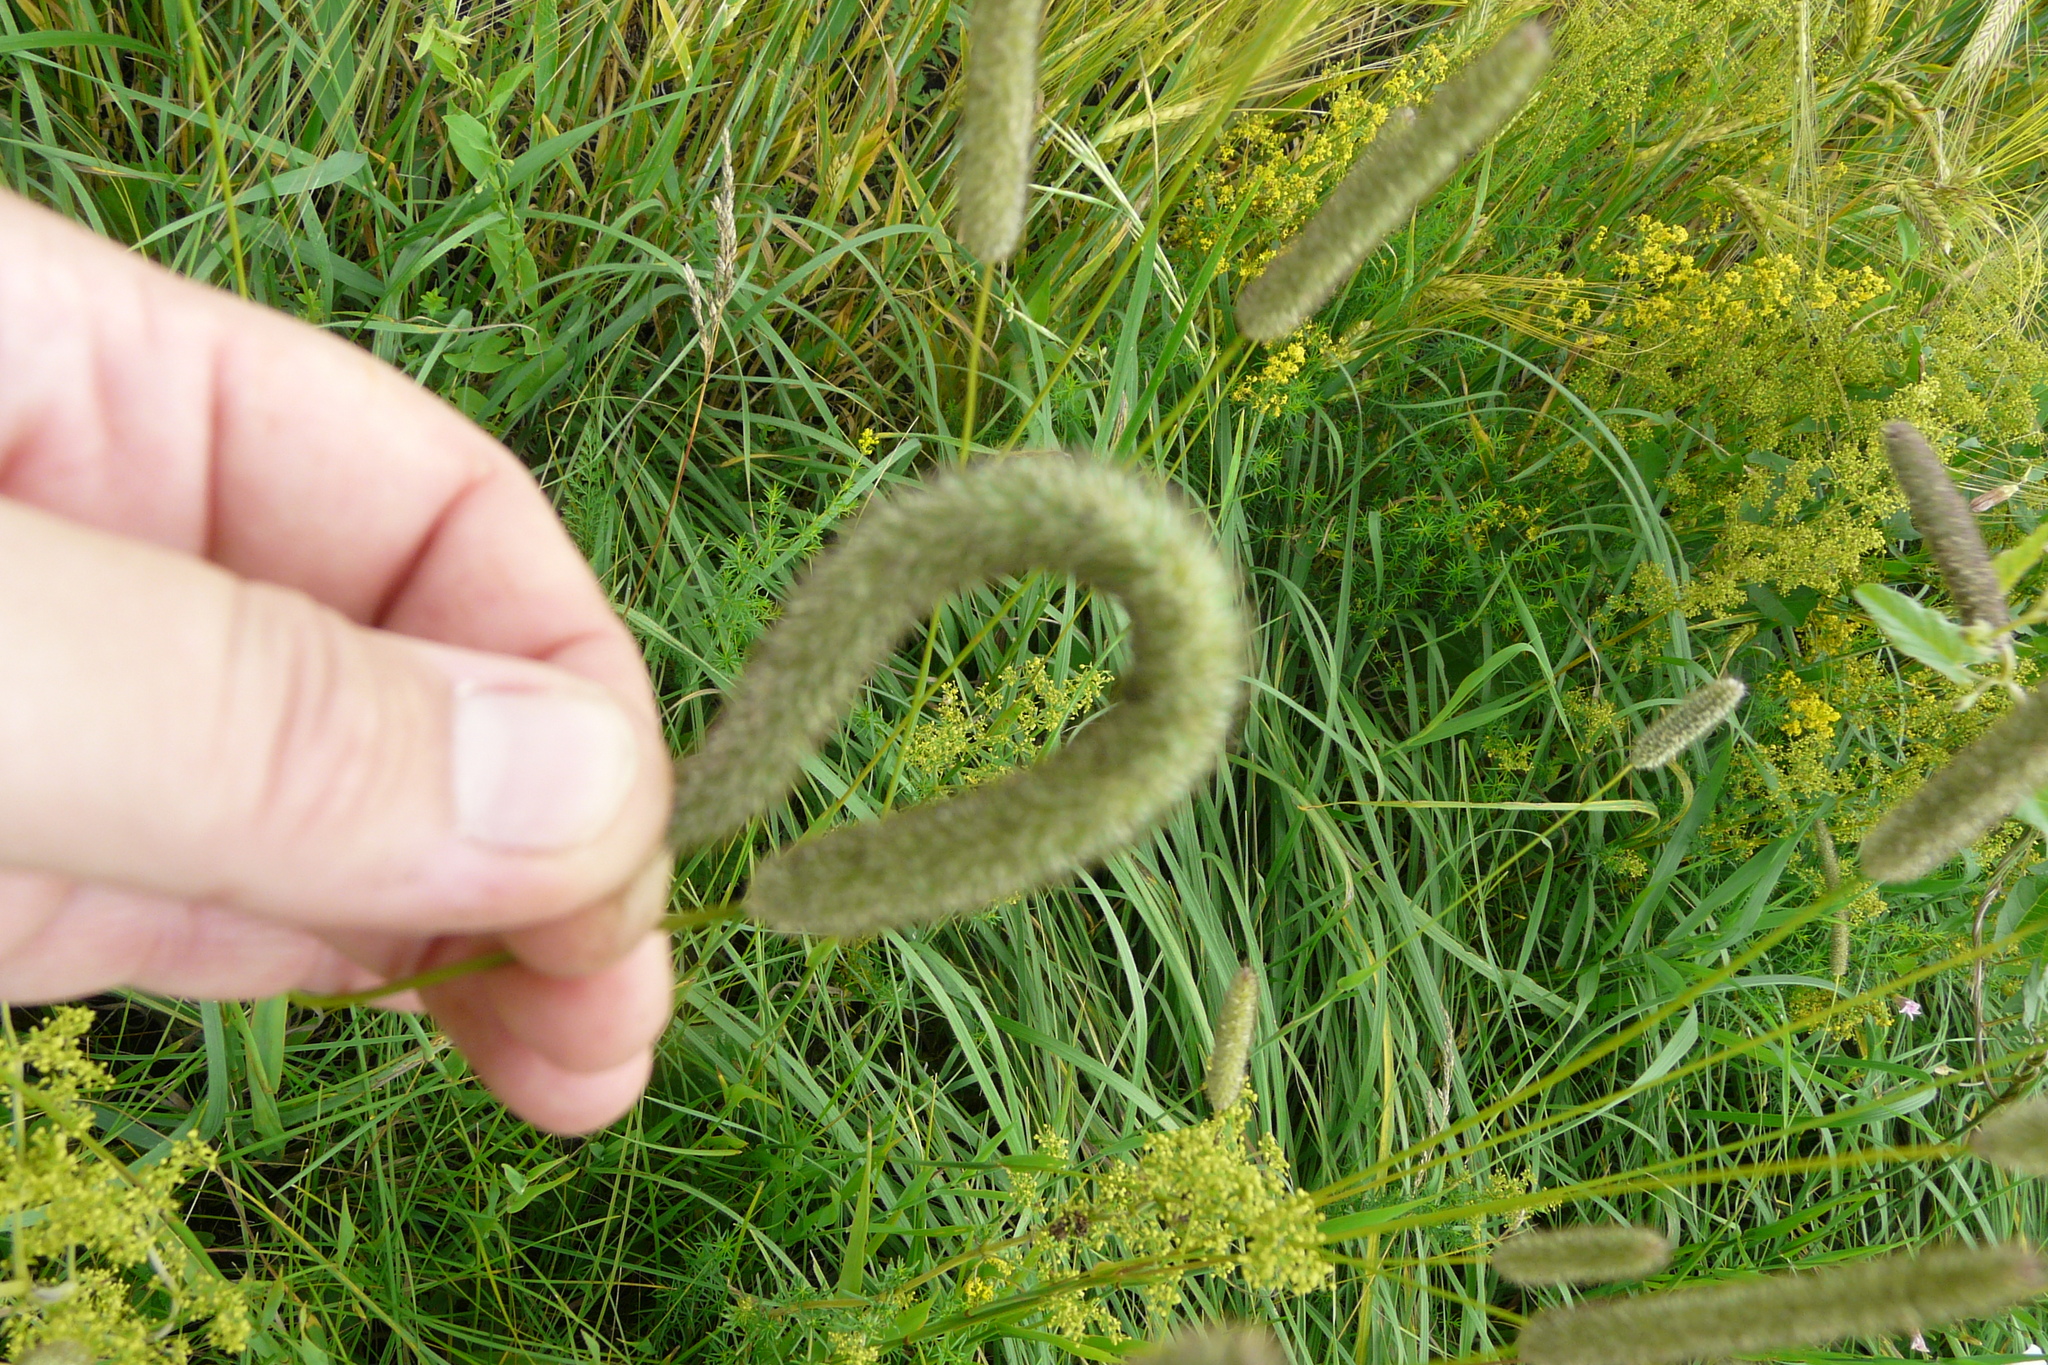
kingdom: Plantae
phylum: Tracheophyta
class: Liliopsida
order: Poales
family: Poaceae
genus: Phleum
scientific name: Phleum pratense
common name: Timothy grass
